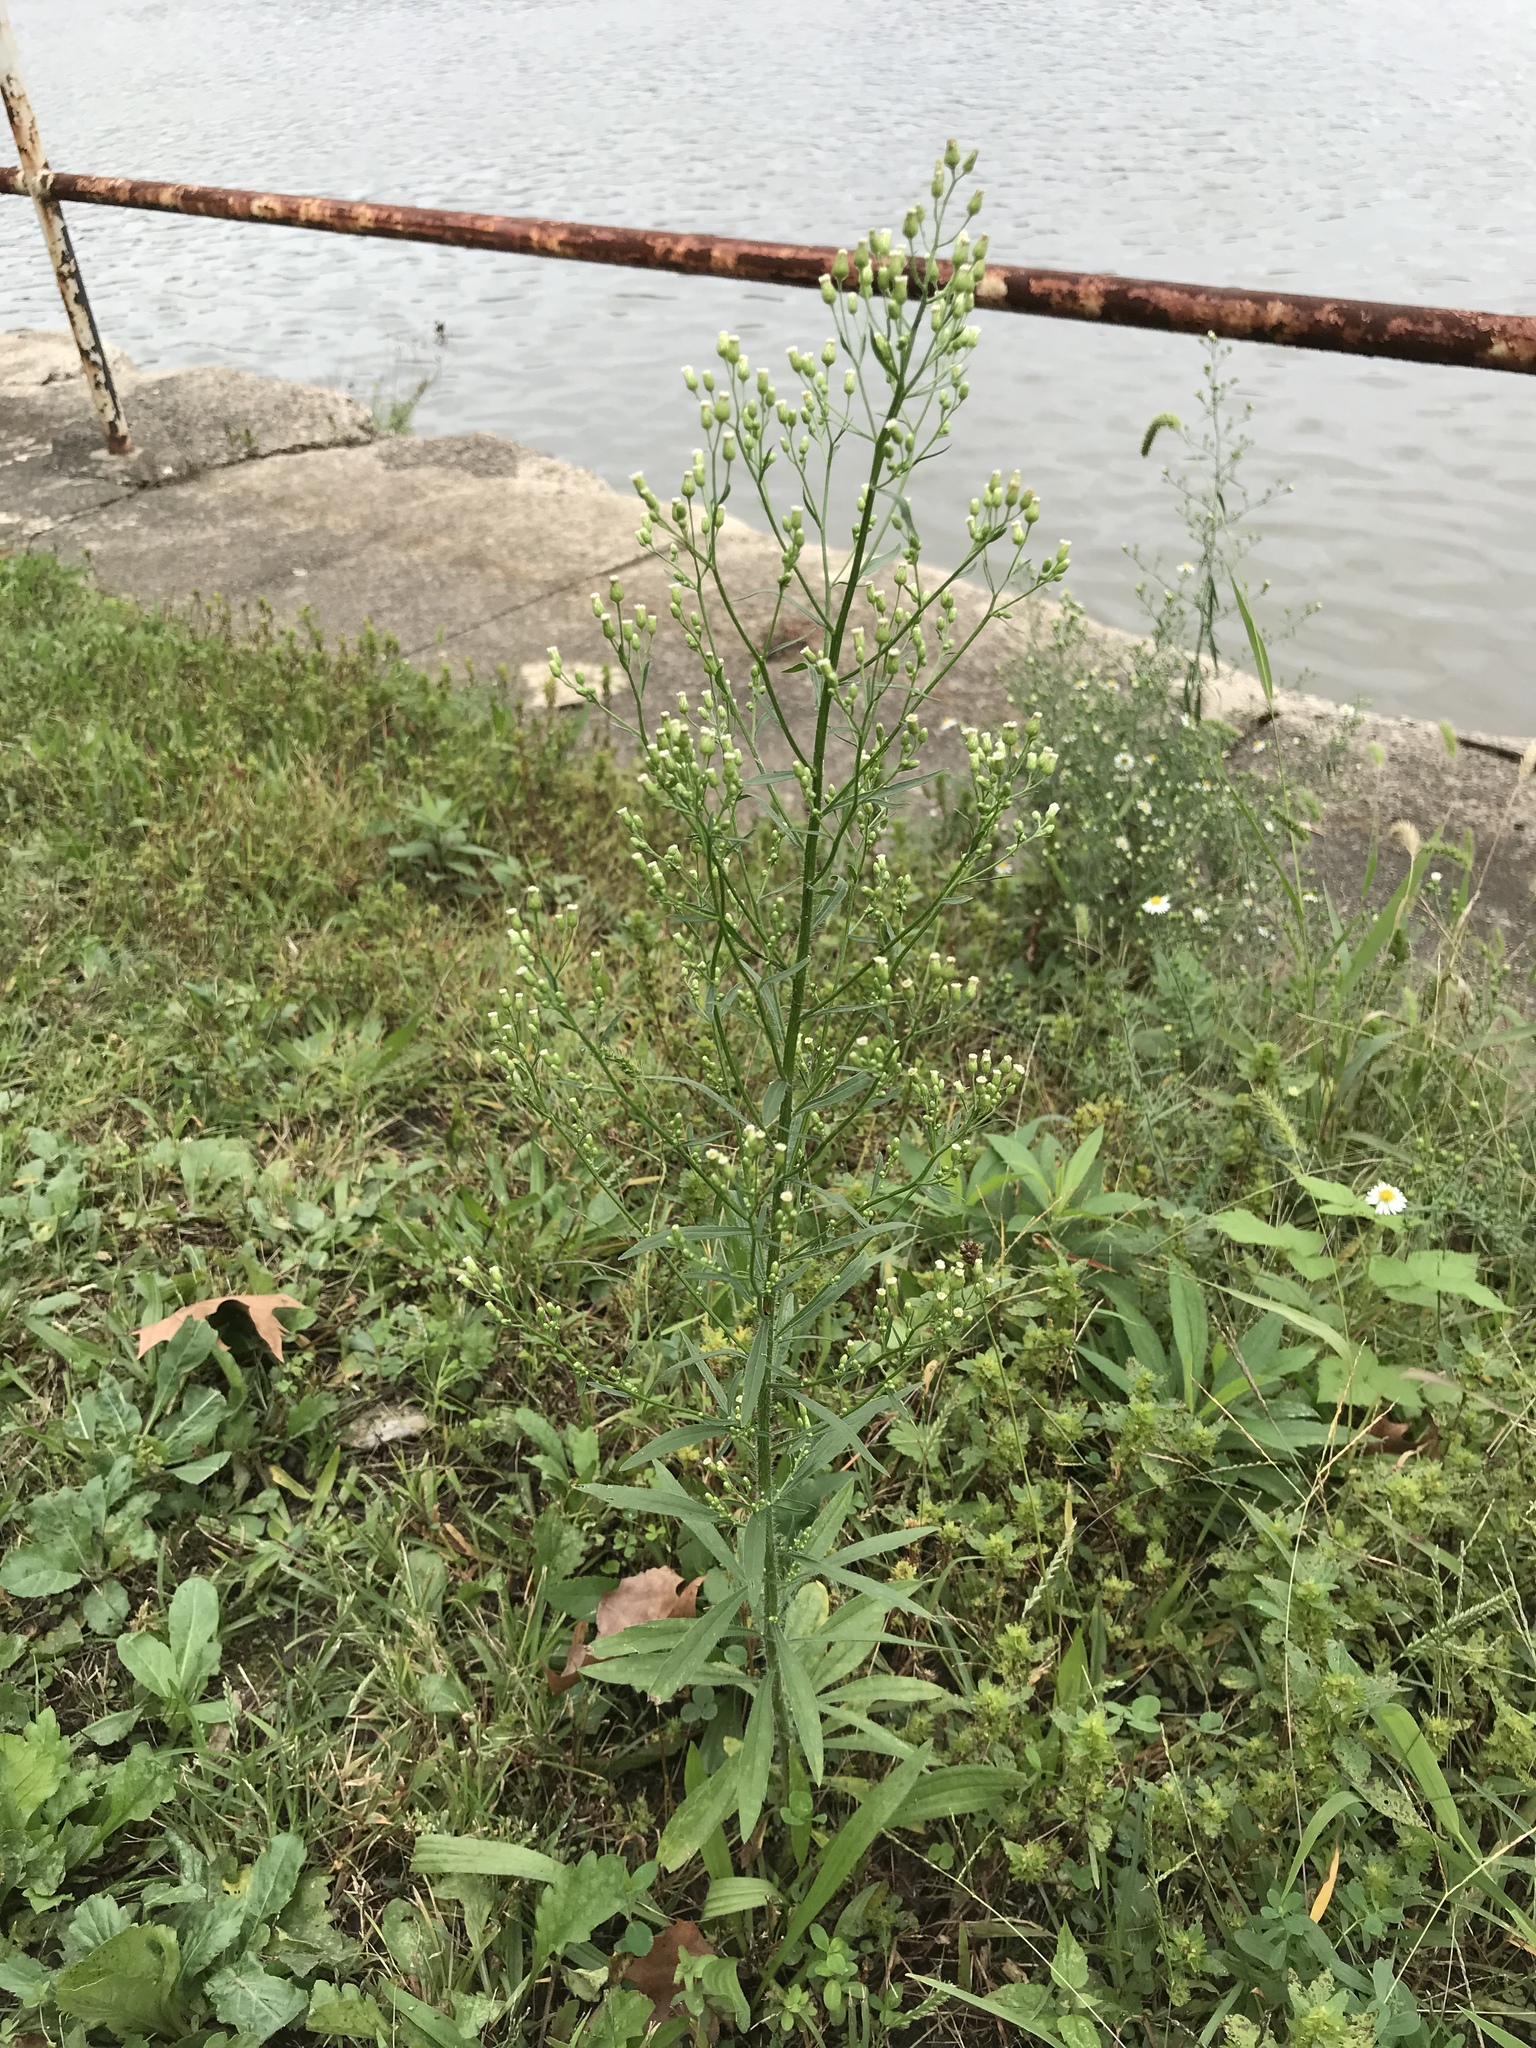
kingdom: Plantae
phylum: Tracheophyta
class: Magnoliopsida
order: Asterales
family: Asteraceae
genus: Erigeron
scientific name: Erigeron canadensis
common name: Canadian fleabane
